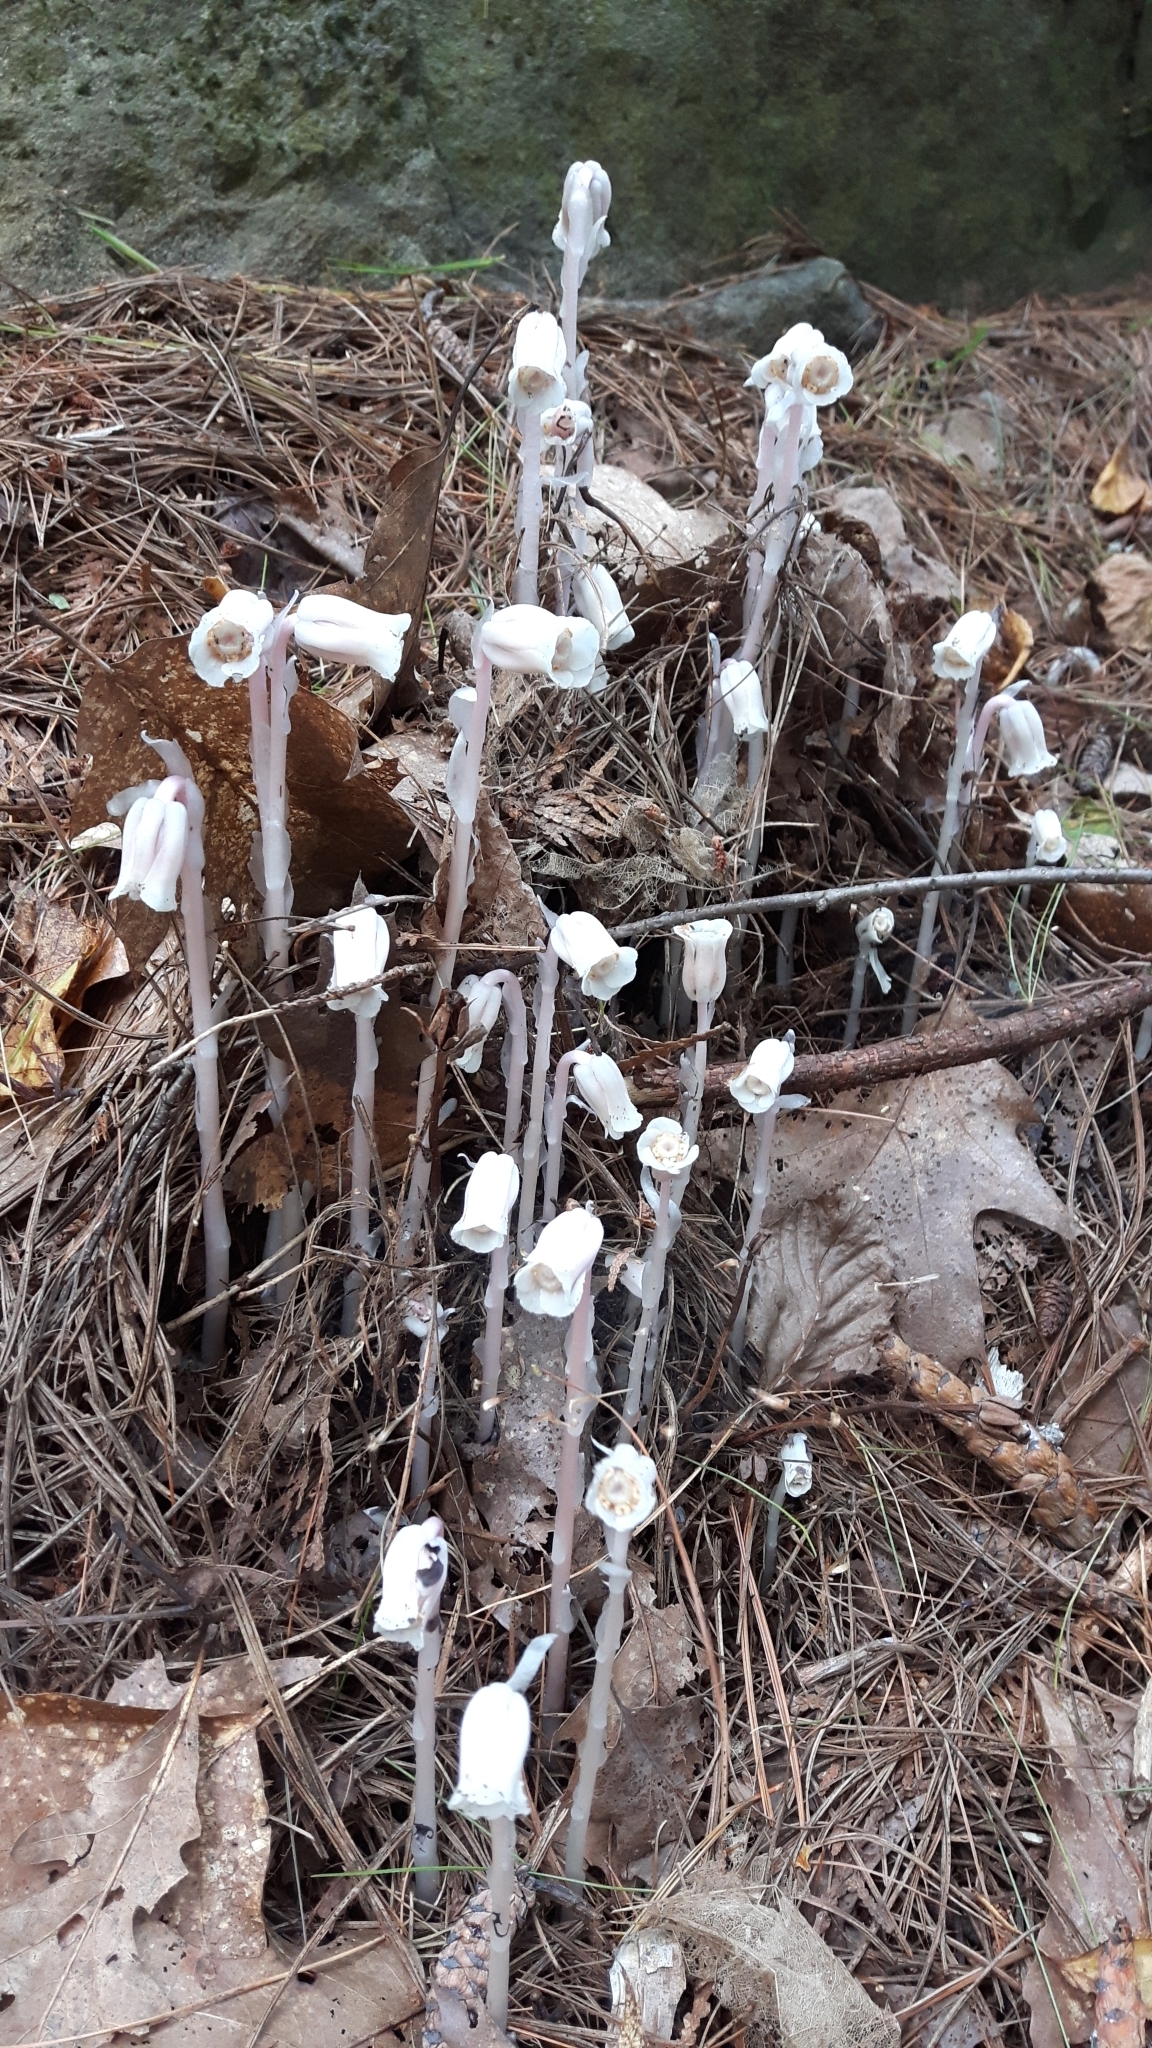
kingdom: Plantae
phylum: Tracheophyta
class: Magnoliopsida
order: Ericales
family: Ericaceae
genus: Monotropa
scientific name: Monotropa uniflora
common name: Convulsion root
